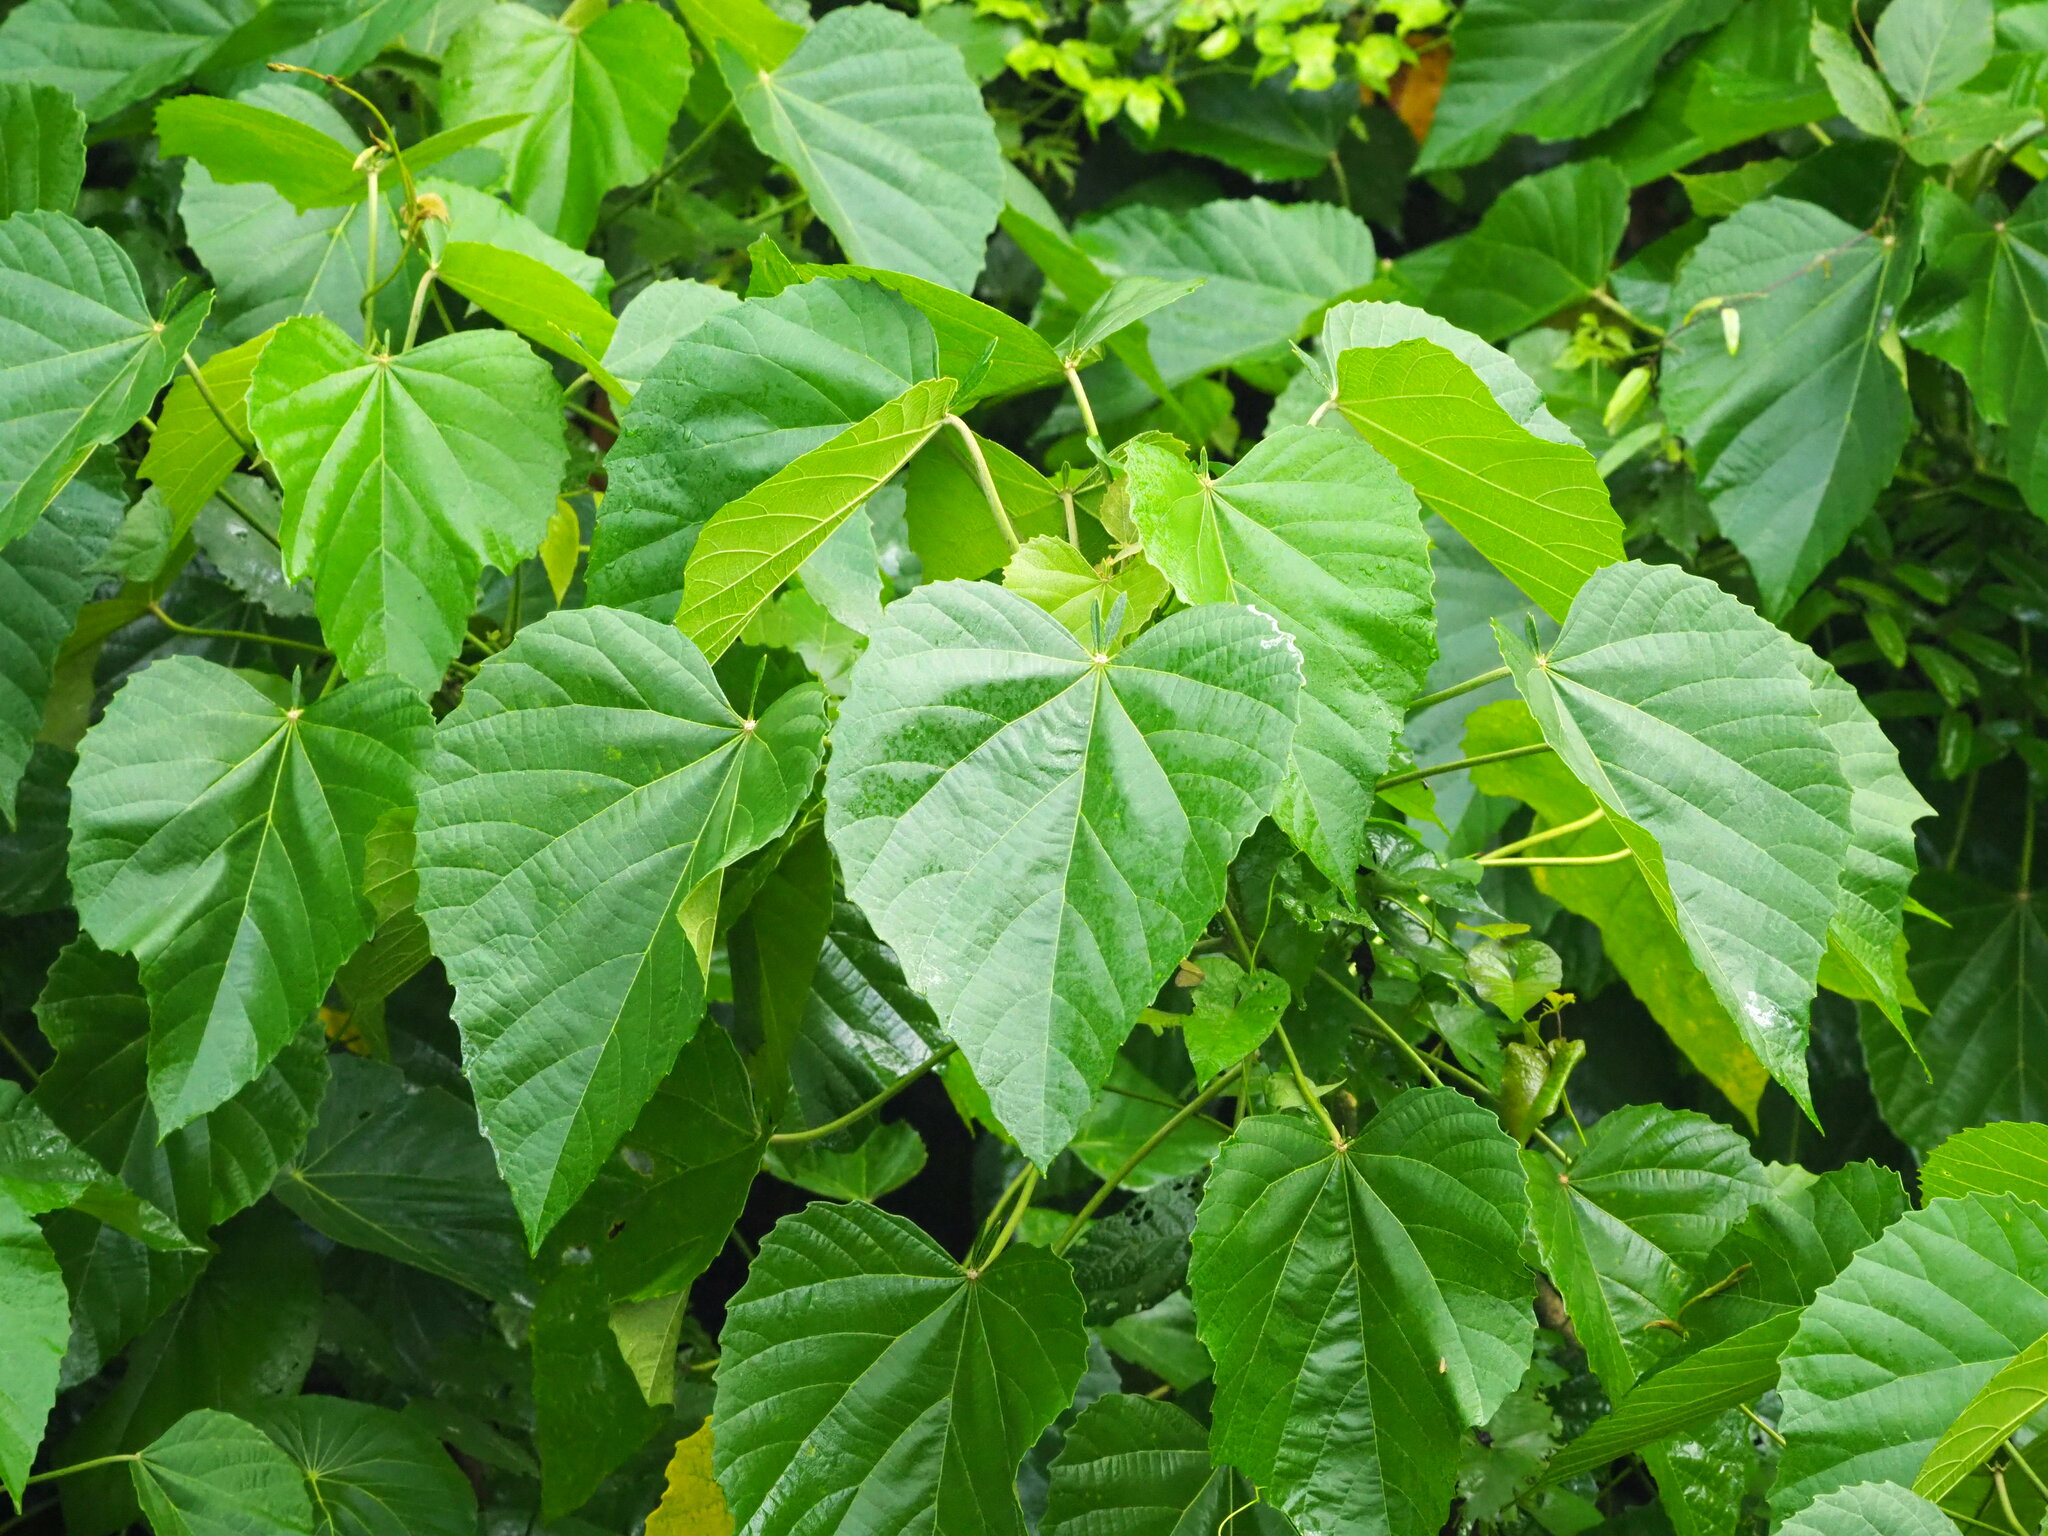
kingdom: Plantae
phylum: Tracheophyta
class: Magnoliopsida
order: Malpighiales
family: Euphorbiaceae
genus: Melanolepis
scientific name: Melanolepis multiglandulosa
